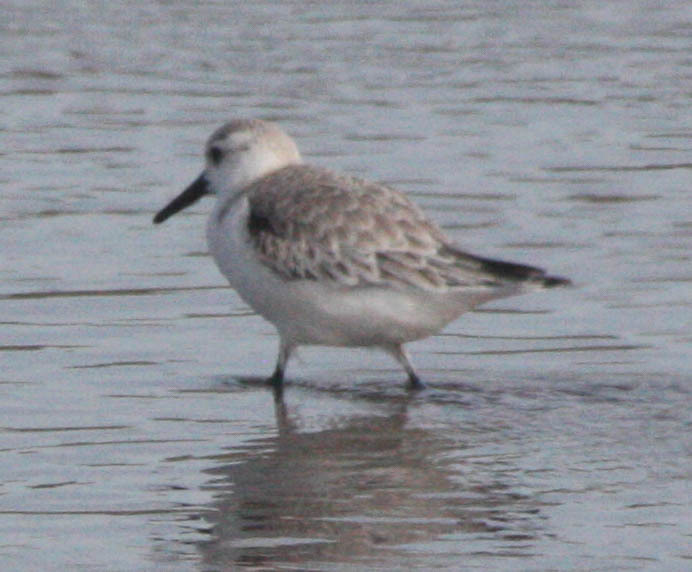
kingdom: Animalia
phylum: Chordata
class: Aves
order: Charadriiformes
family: Scolopacidae
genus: Calidris
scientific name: Calidris alba
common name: Sanderling
